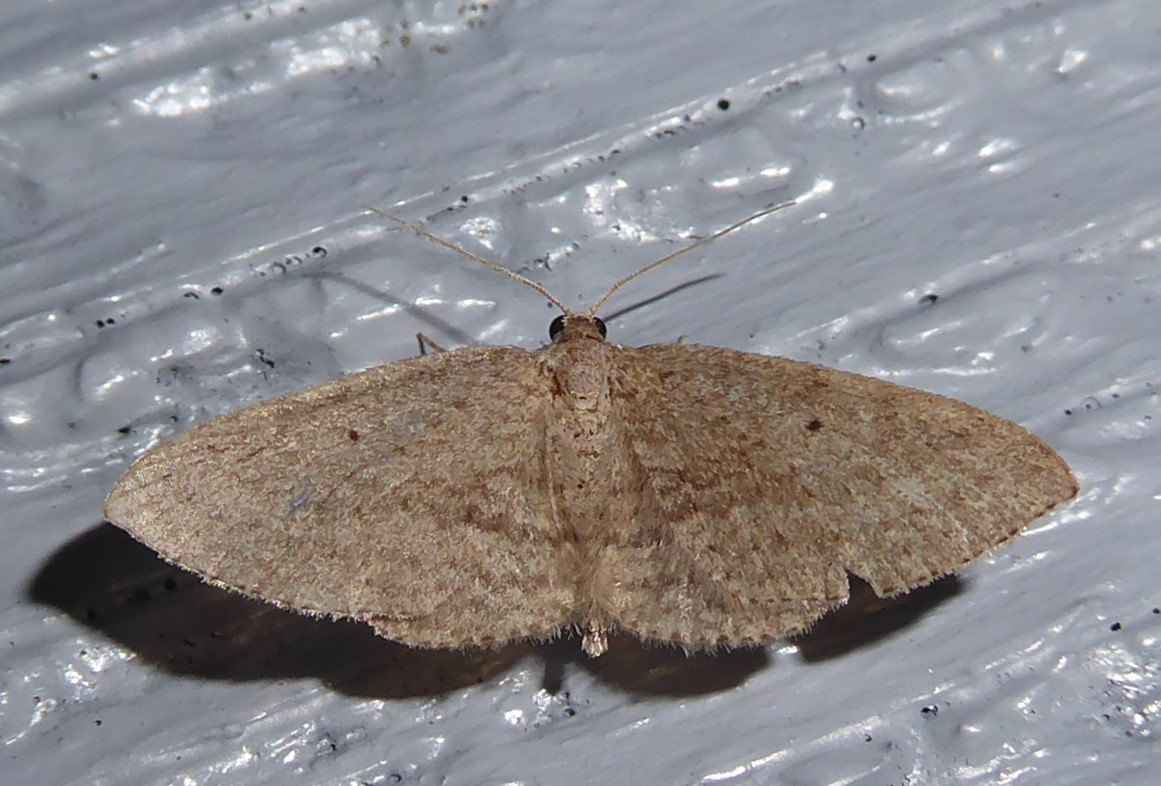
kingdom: Animalia
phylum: Arthropoda
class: Insecta
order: Lepidoptera
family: Geometridae
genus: Poecilasthena
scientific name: Poecilasthena schistaria
